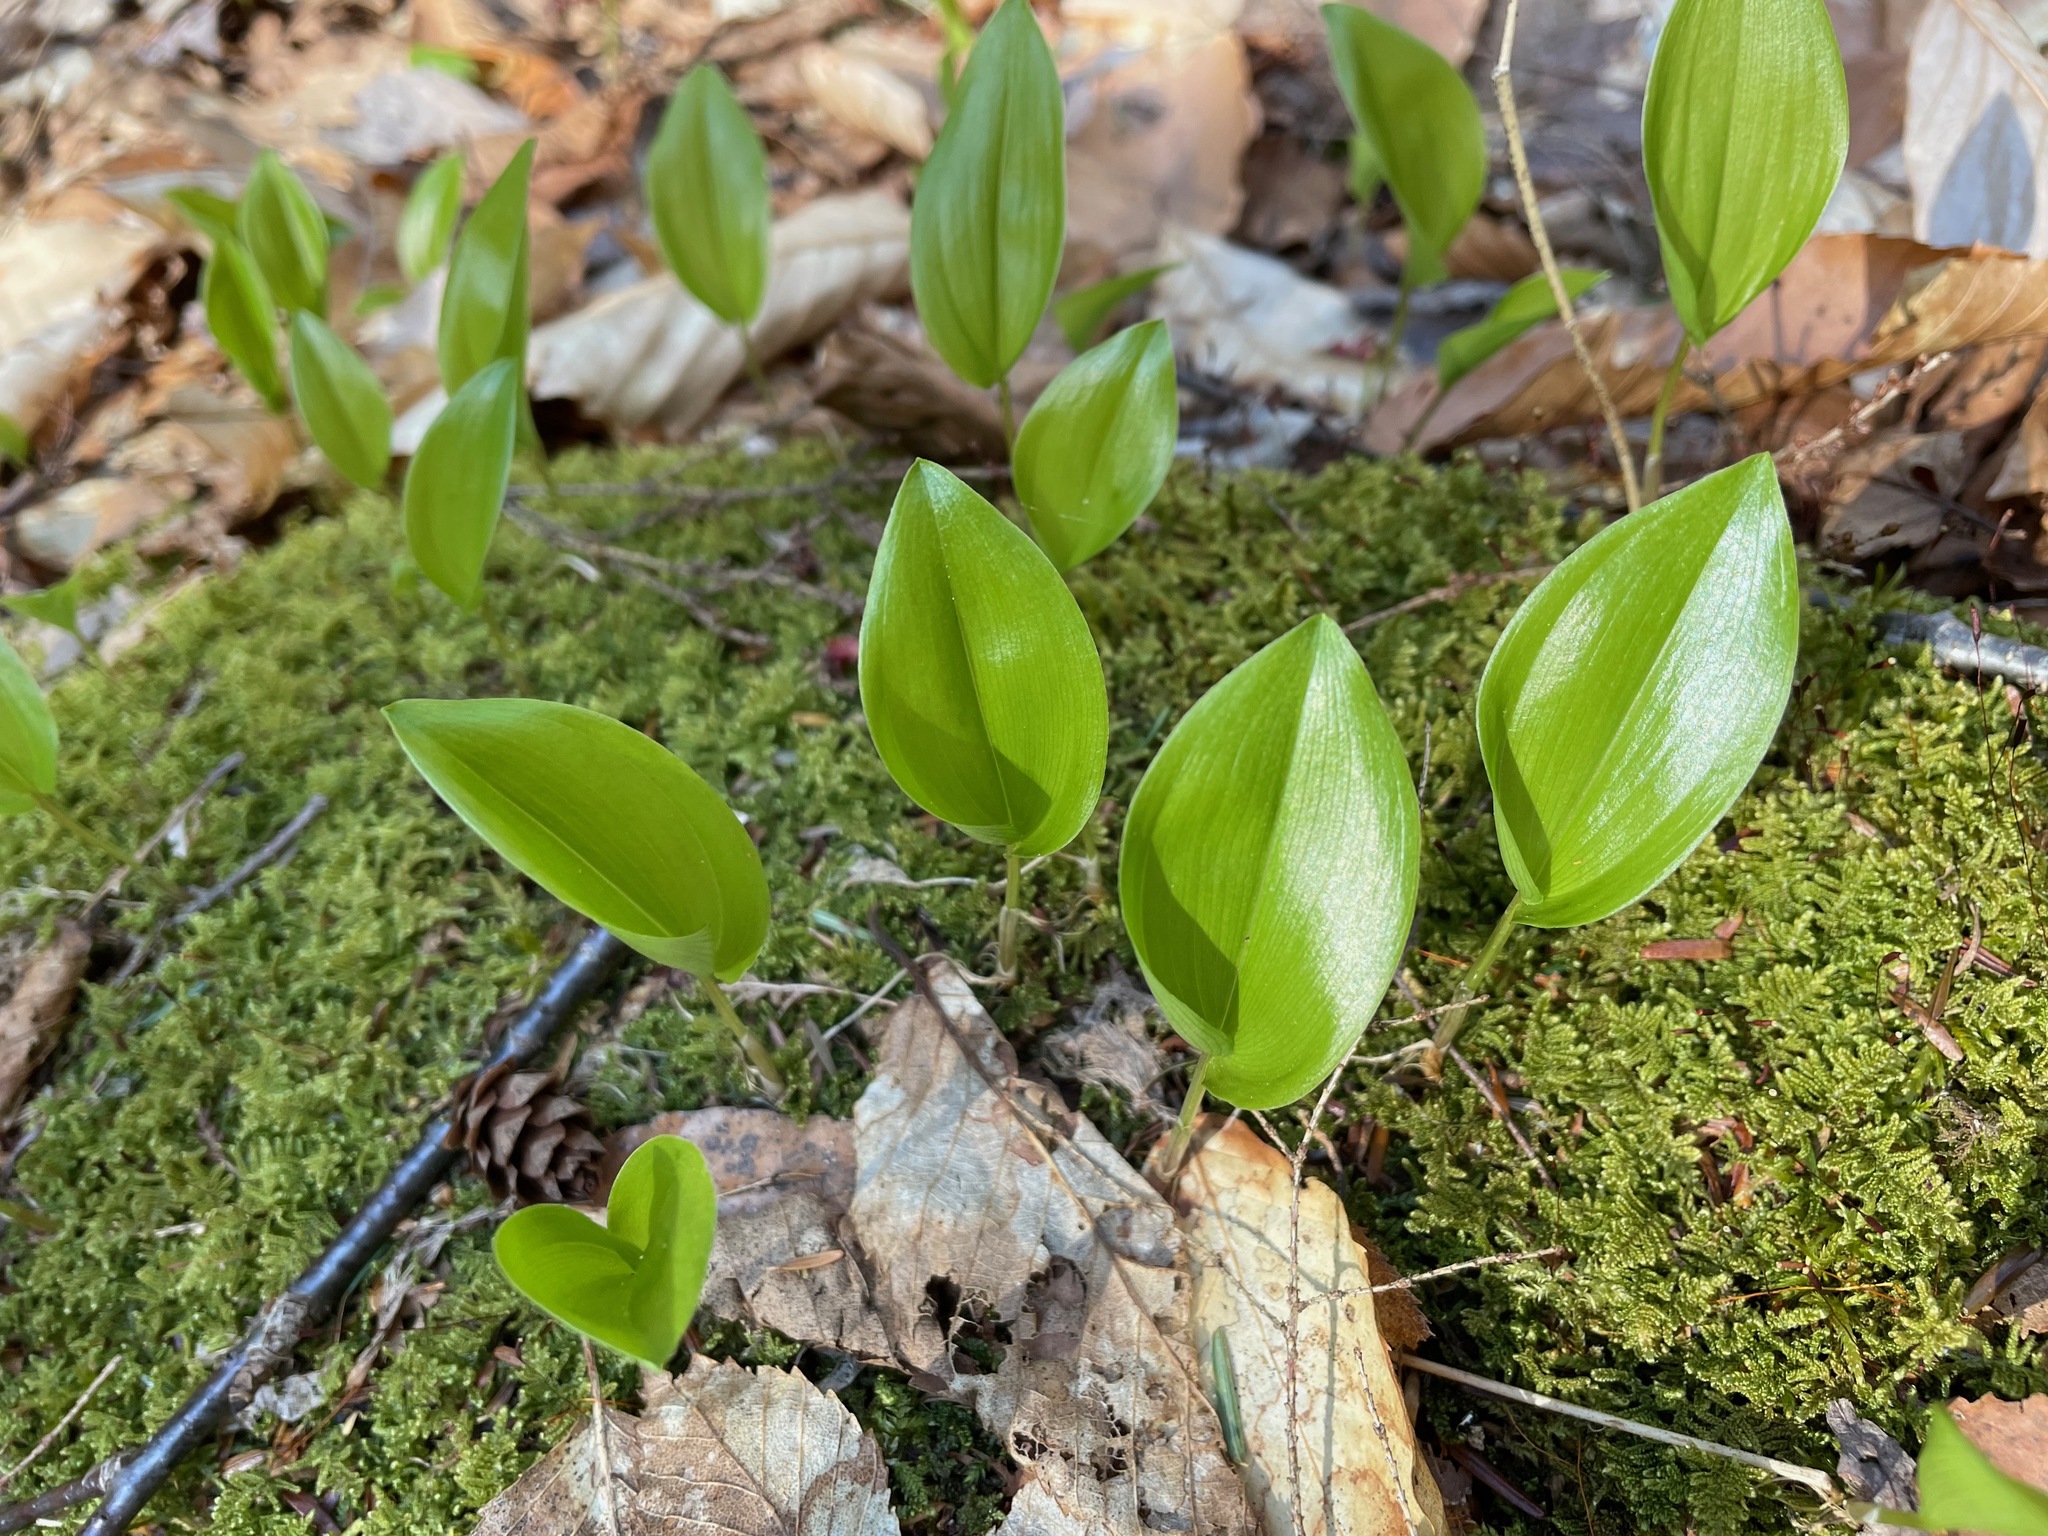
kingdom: Plantae
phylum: Tracheophyta
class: Liliopsida
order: Asparagales
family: Asparagaceae
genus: Maianthemum
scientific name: Maianthemum canadense
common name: False lily-of-the-valley
